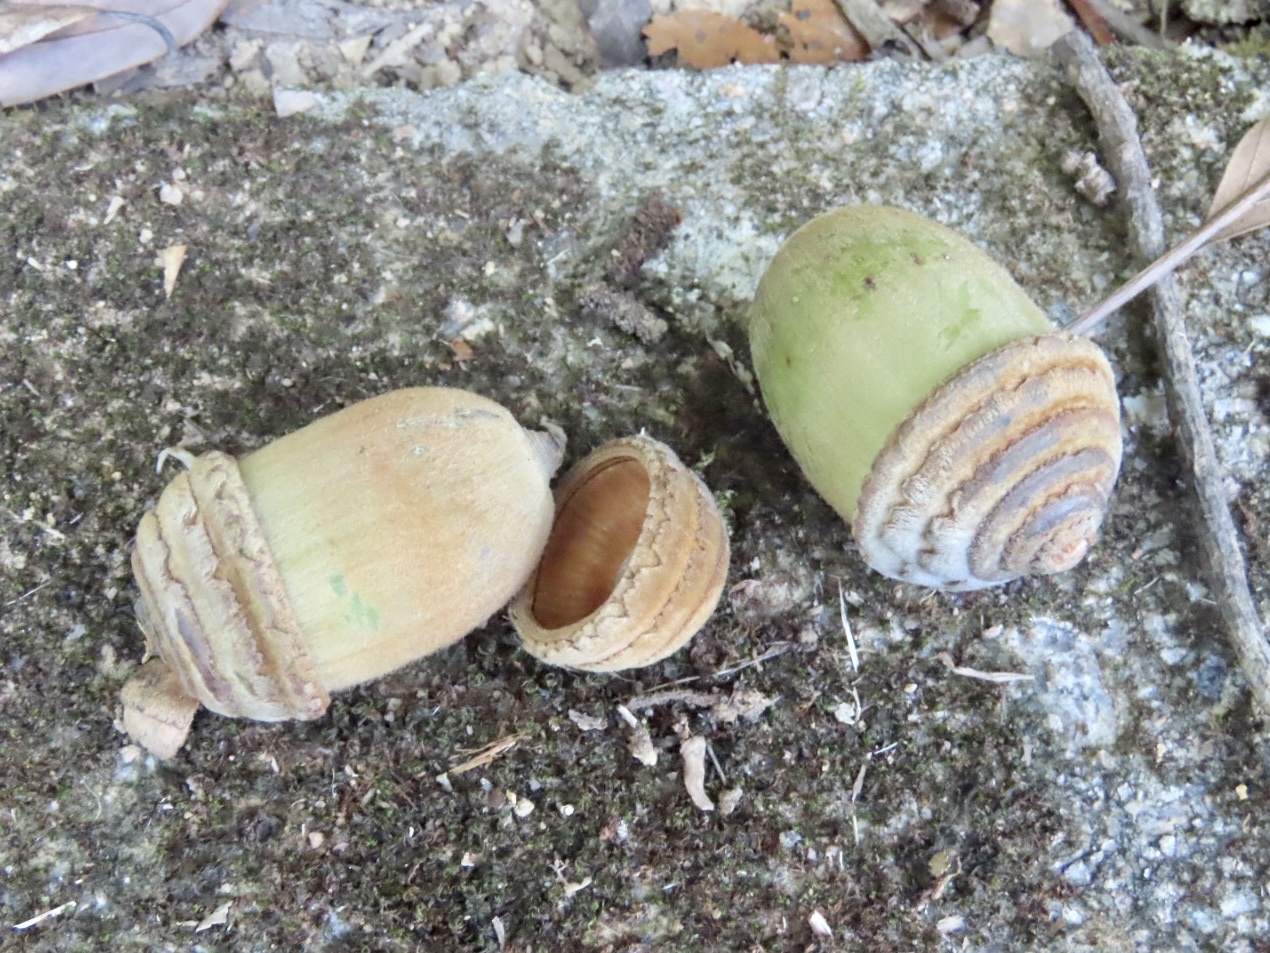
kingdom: Plantae
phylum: Tracheophyta
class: Magnoliopsida
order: Fagales
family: Fagaceae
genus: Quercus
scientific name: Quercus edithiae
